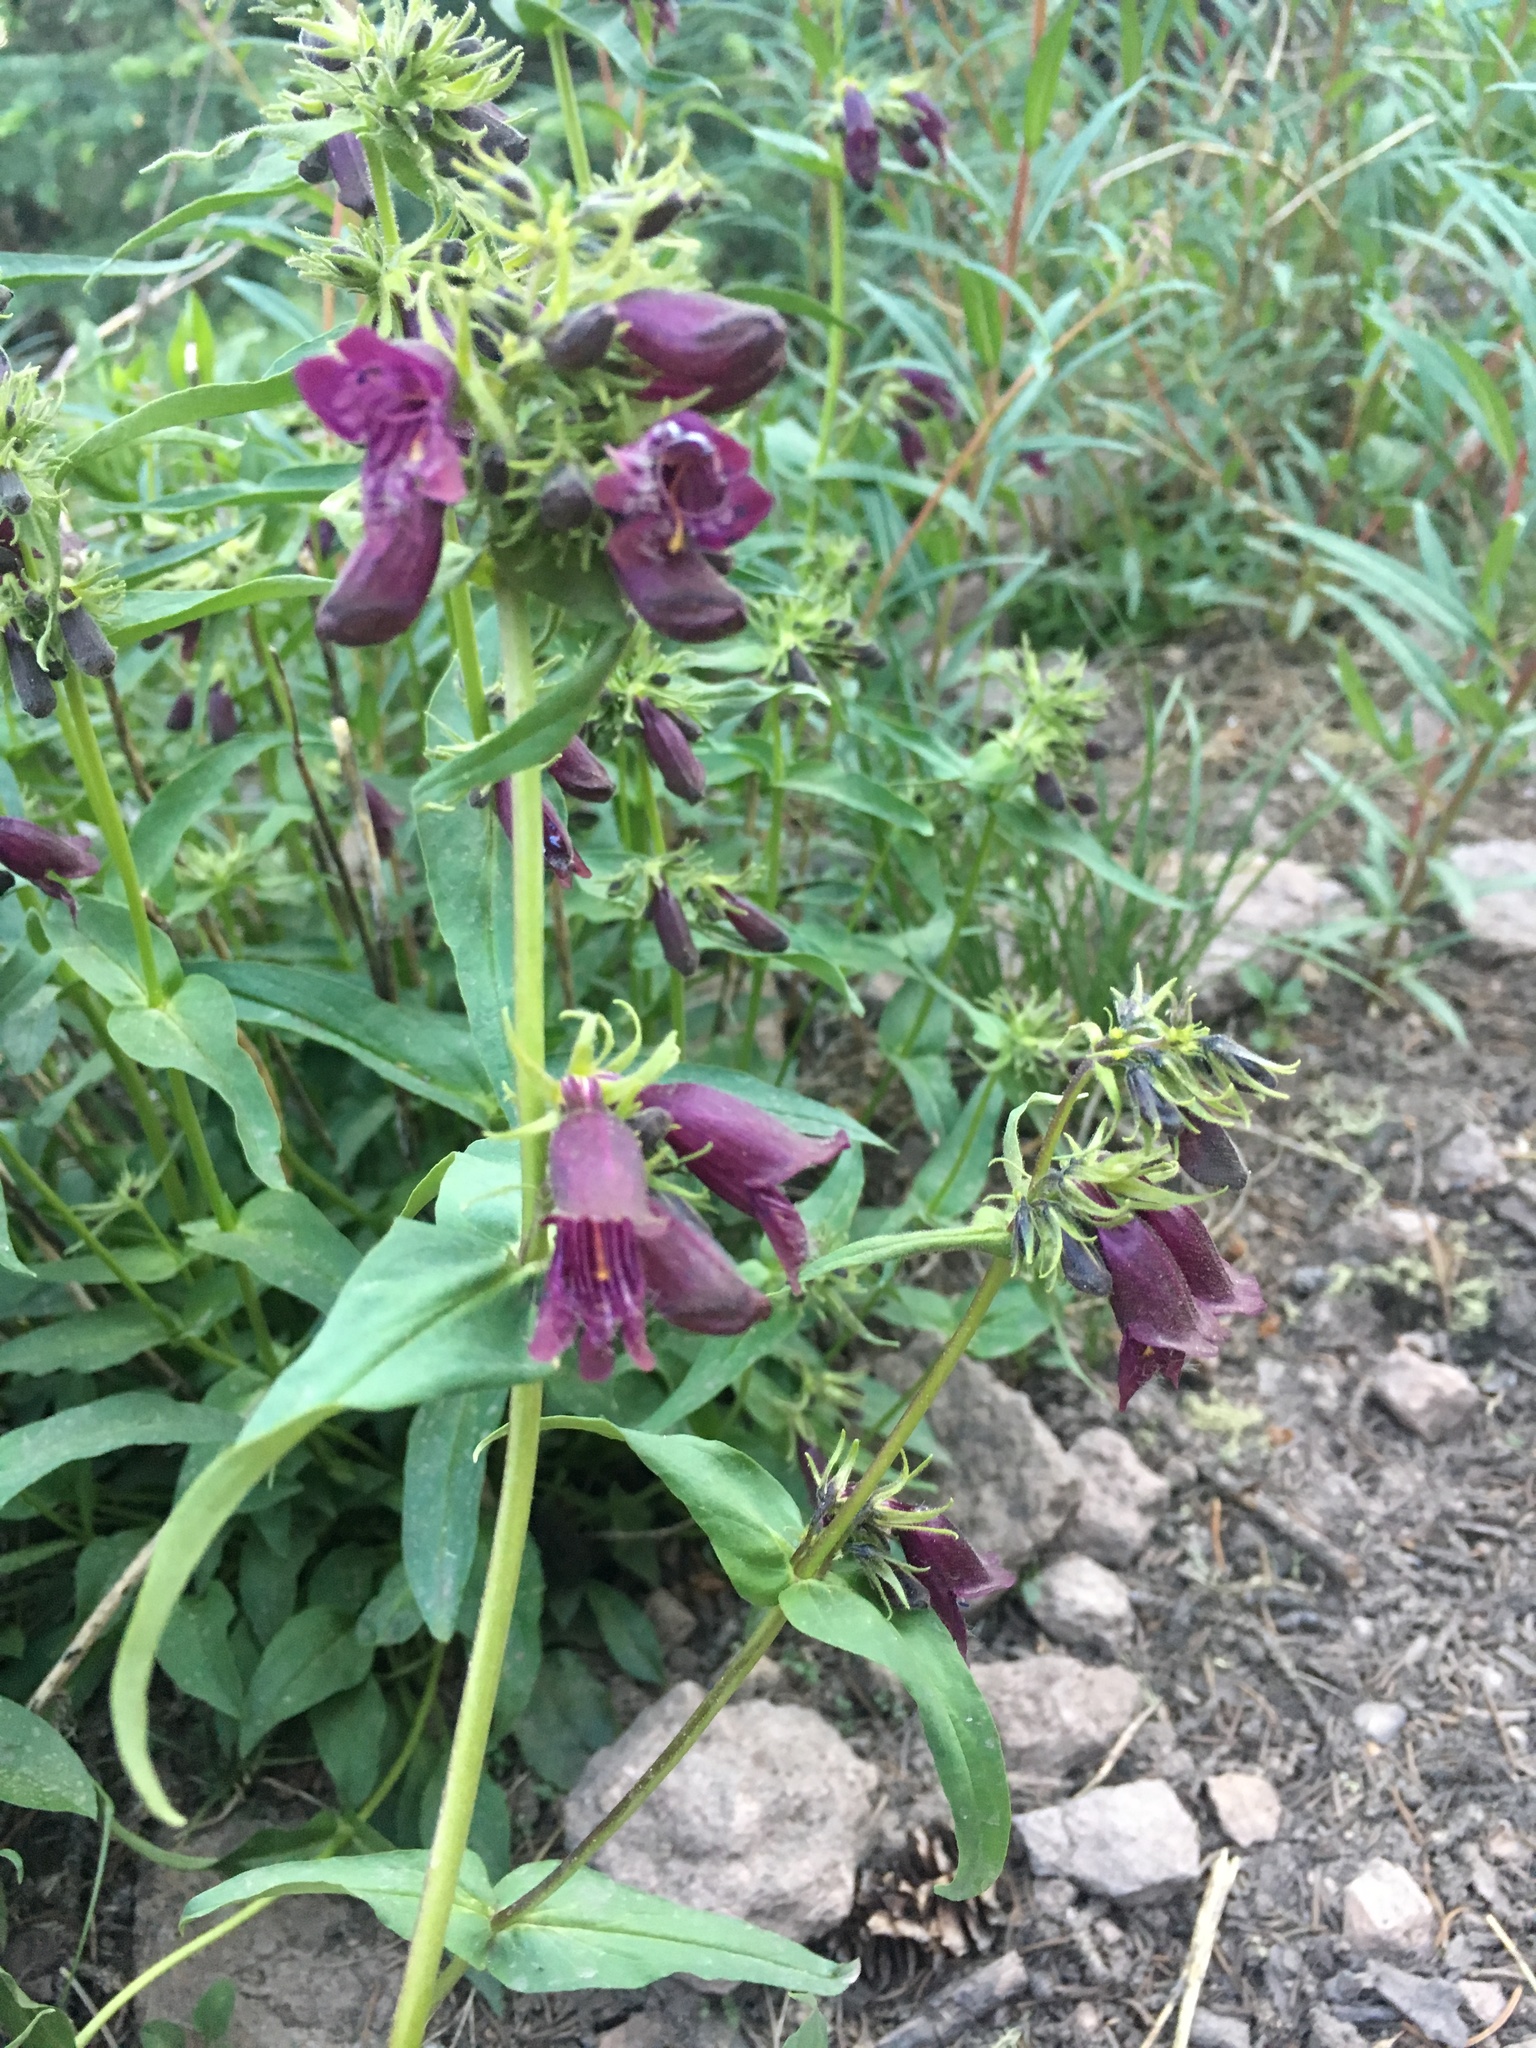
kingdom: Plantae
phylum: Tracheophyta
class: Magnoliopsida
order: Lamiales
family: Plantaginaceae
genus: Penstemon
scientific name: Penstemon whippleanus
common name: Whipple's penstemon
